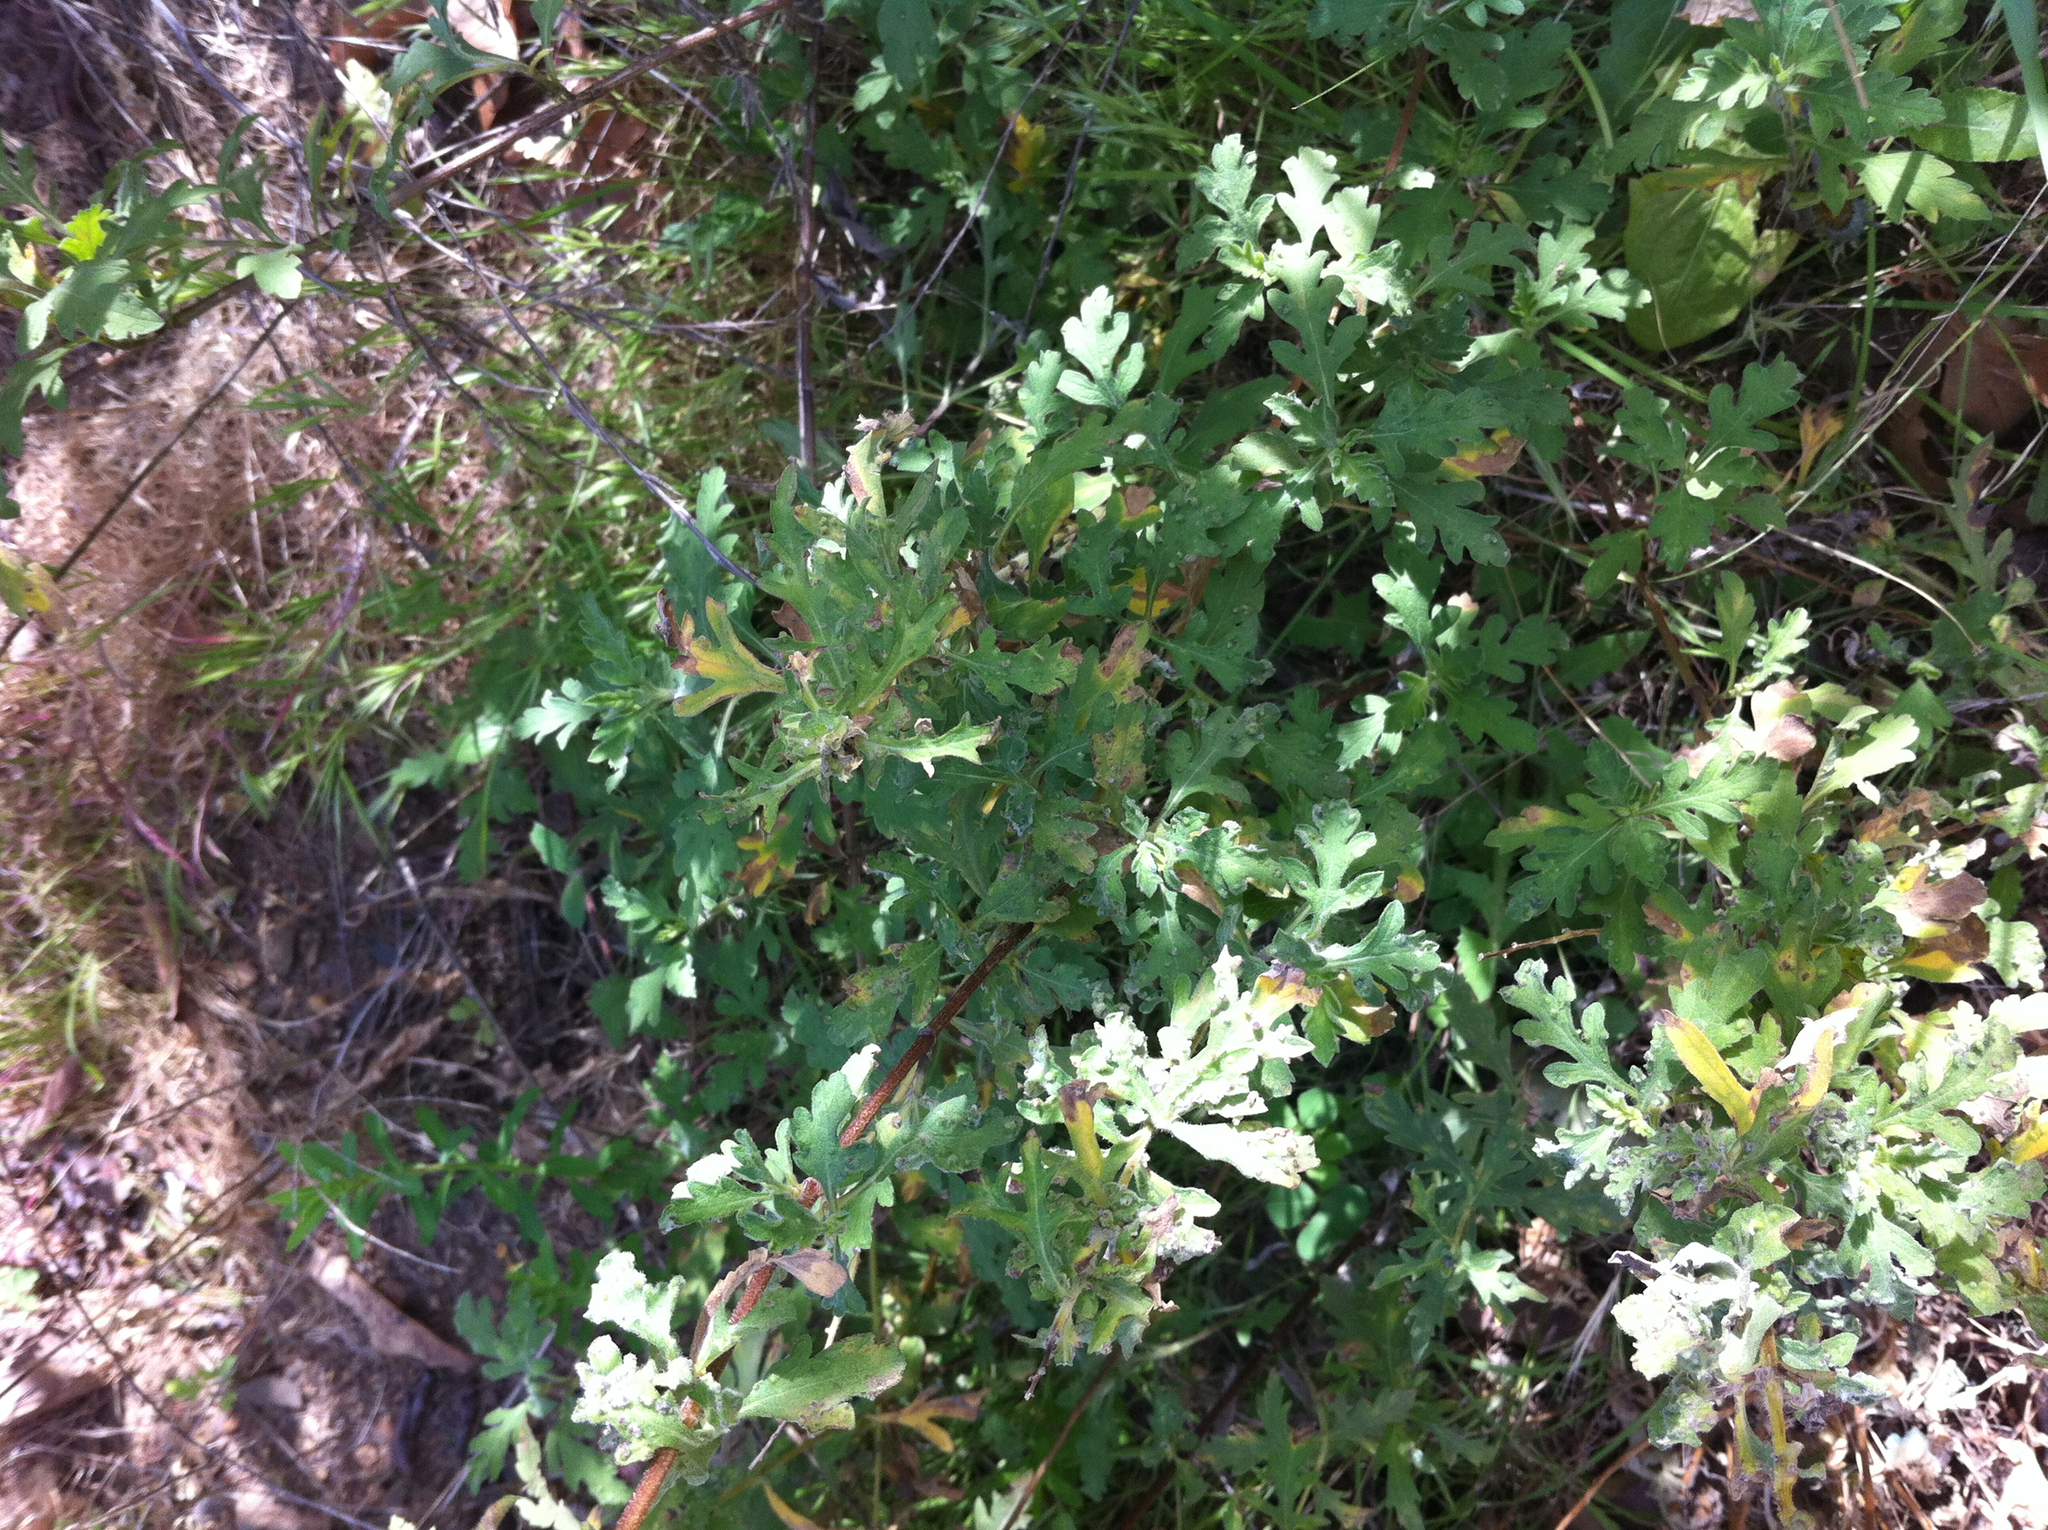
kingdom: Plantae
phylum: Tracheophyta
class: Magnoliopsida
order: Asterales
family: Asteraceae
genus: Ambrosia
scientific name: Ambrosia psilostachya
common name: Perennial ragweed
